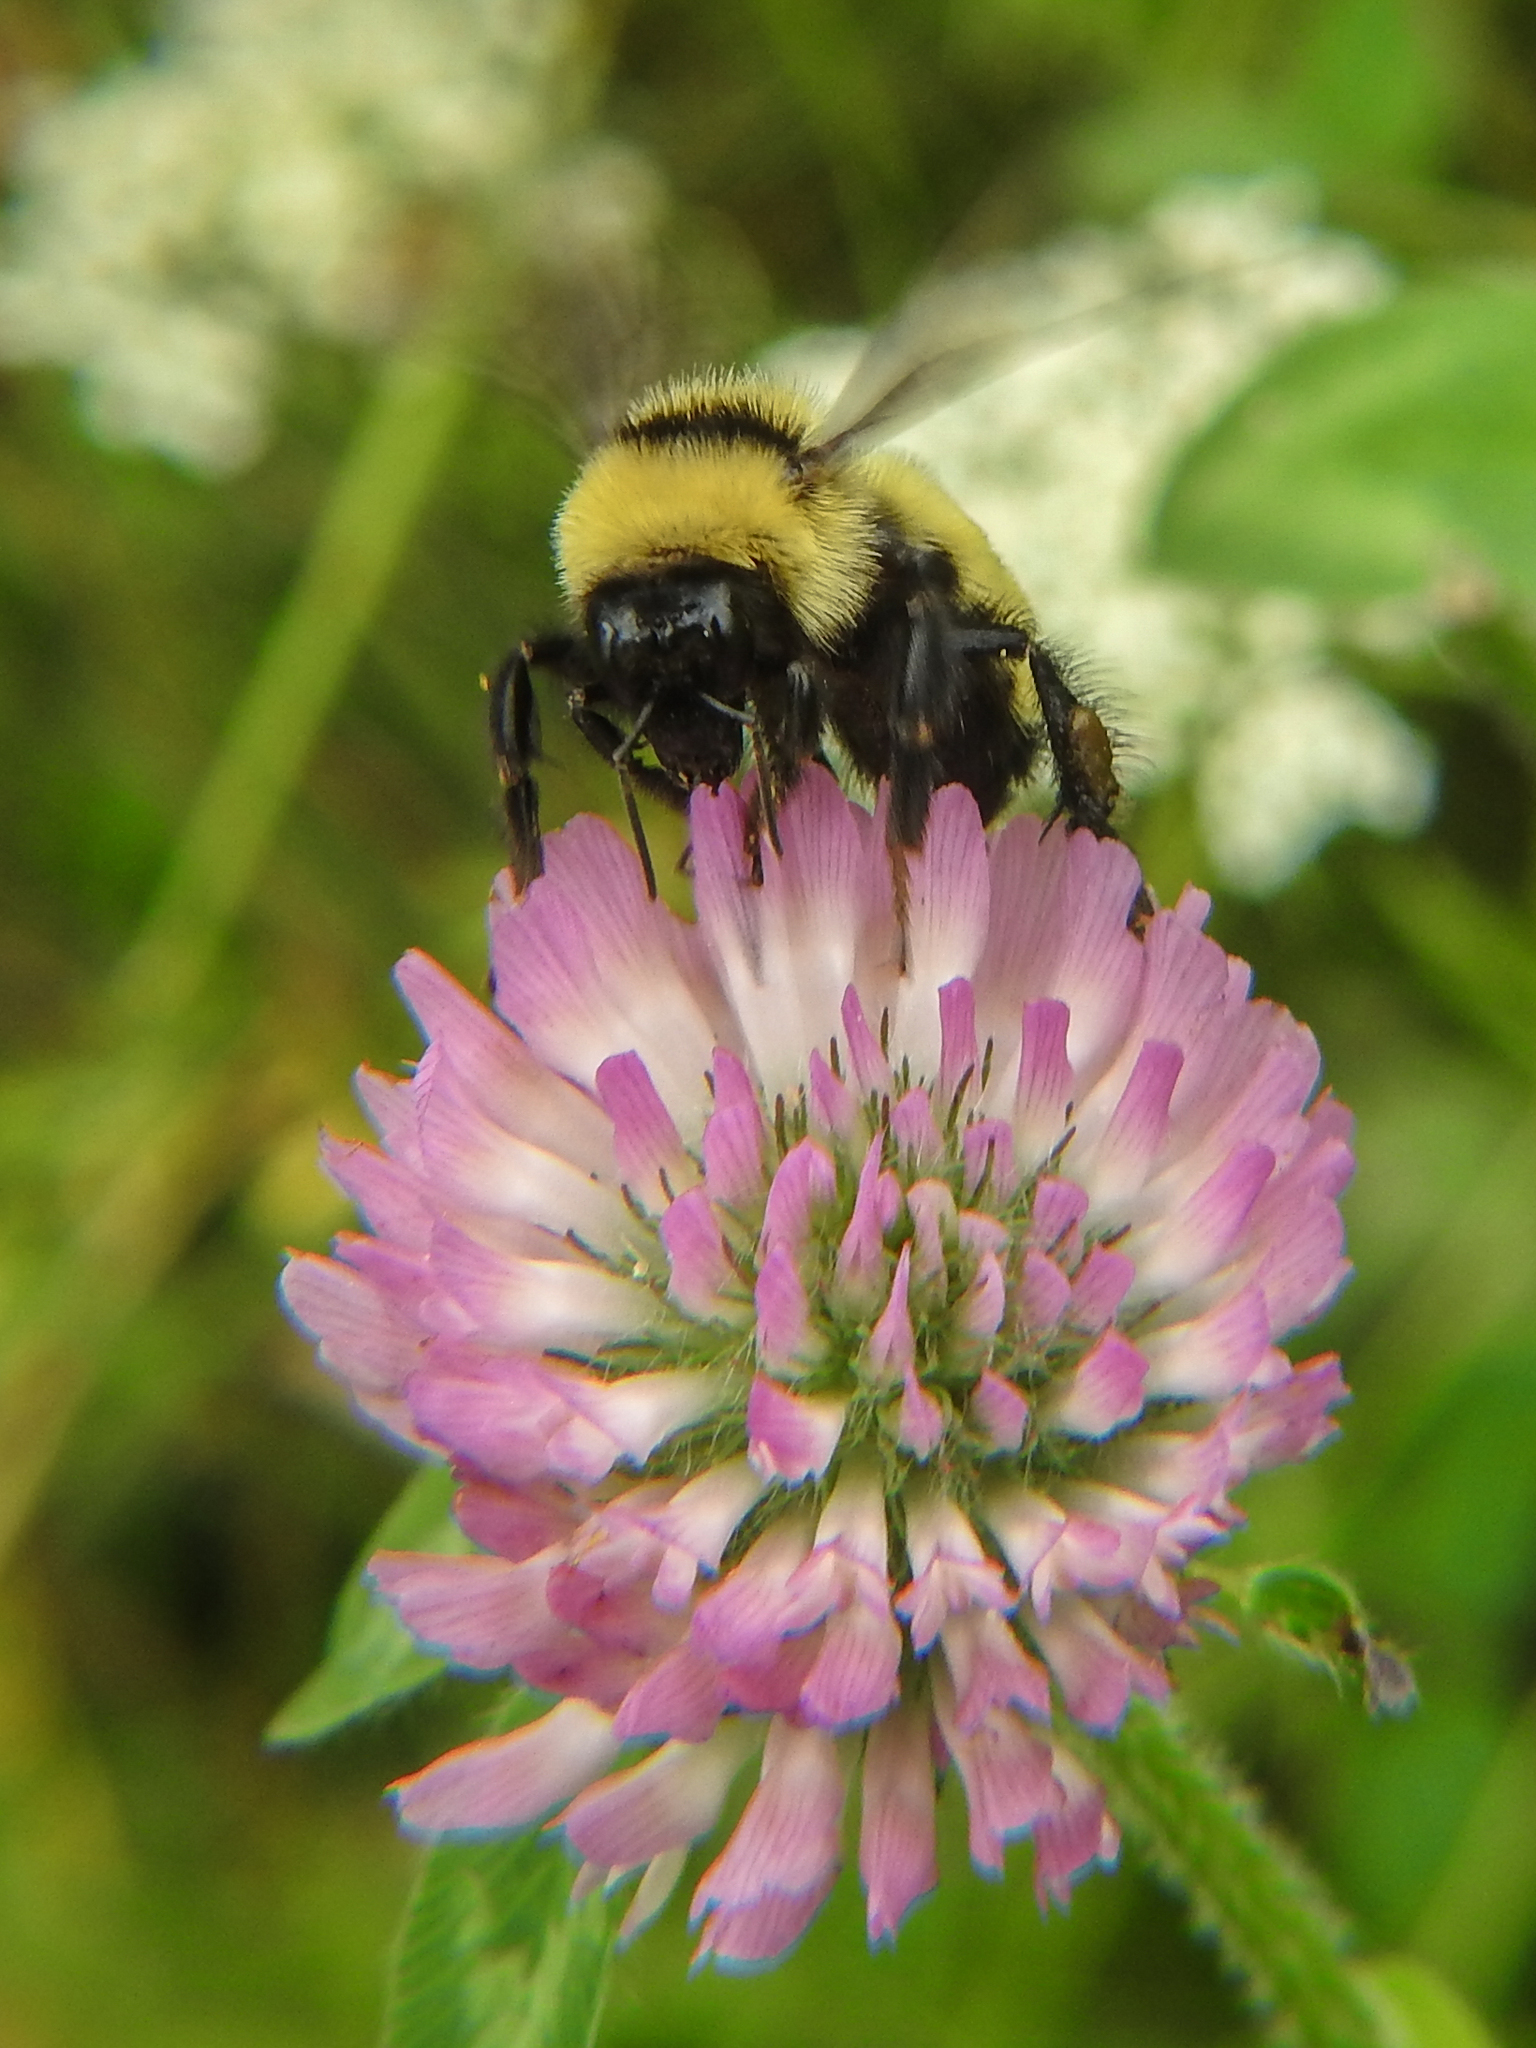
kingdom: Animalia
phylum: Arthropoda
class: Insecta
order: Hymenoptera
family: Apidae
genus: Bombus
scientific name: Bombus fervidus
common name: Yellow bumble bee
